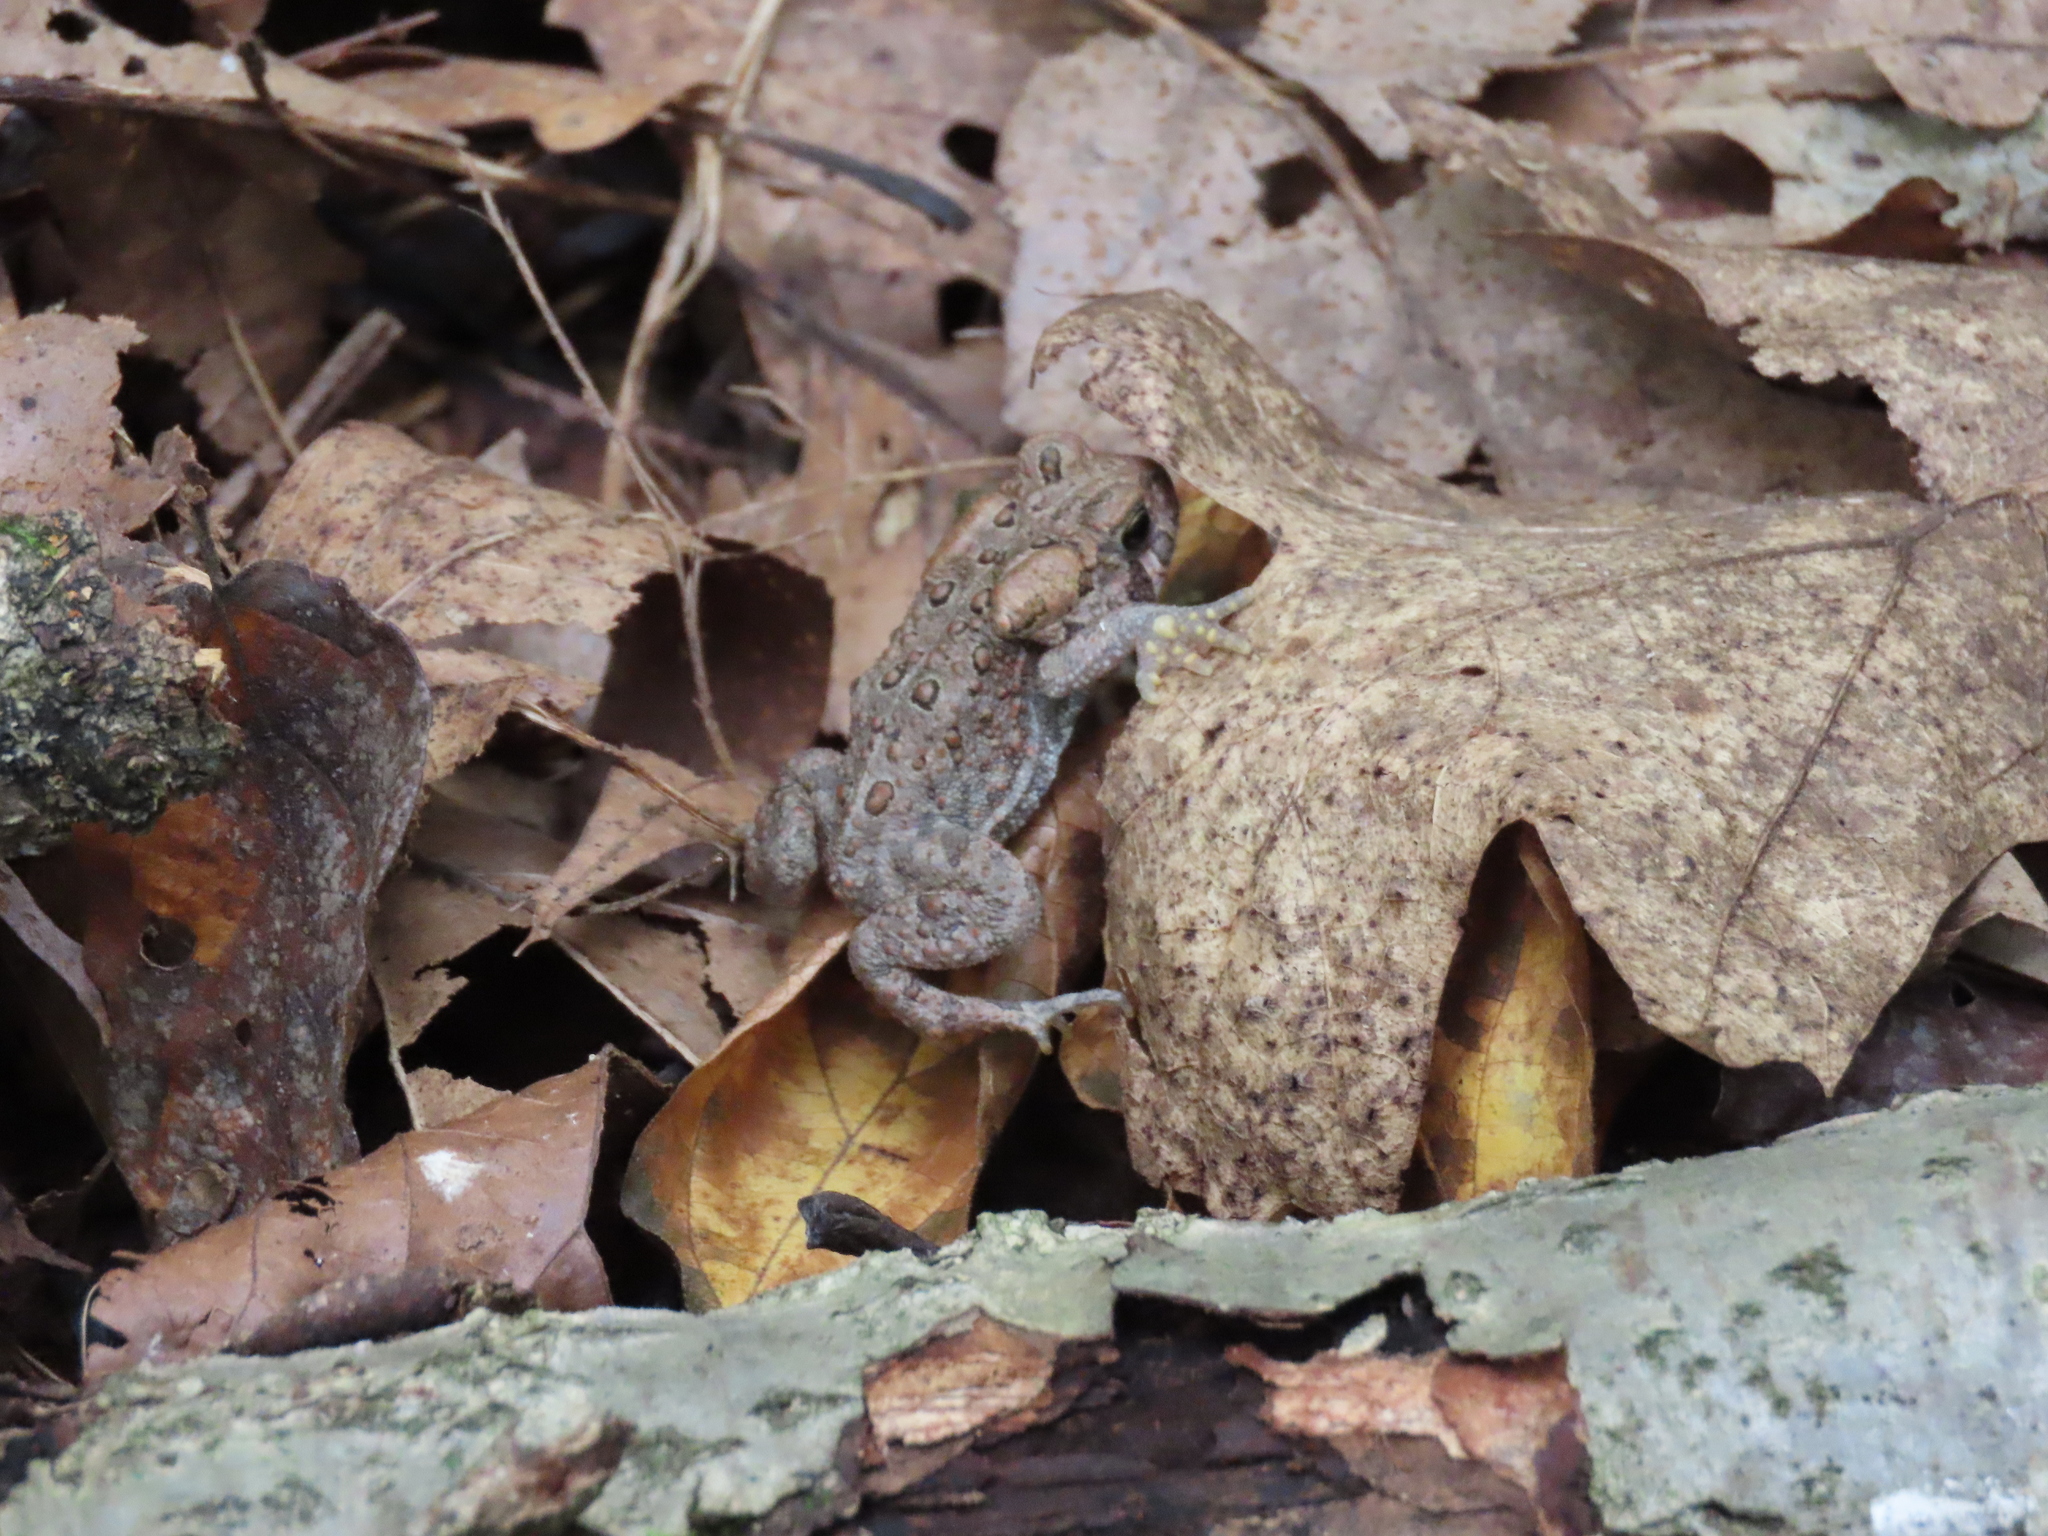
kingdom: Animalia
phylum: Chordata
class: Amphibia
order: Anura
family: Bufonidae
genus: Anaxyrus
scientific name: Anaxyrus americanus
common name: American toad
